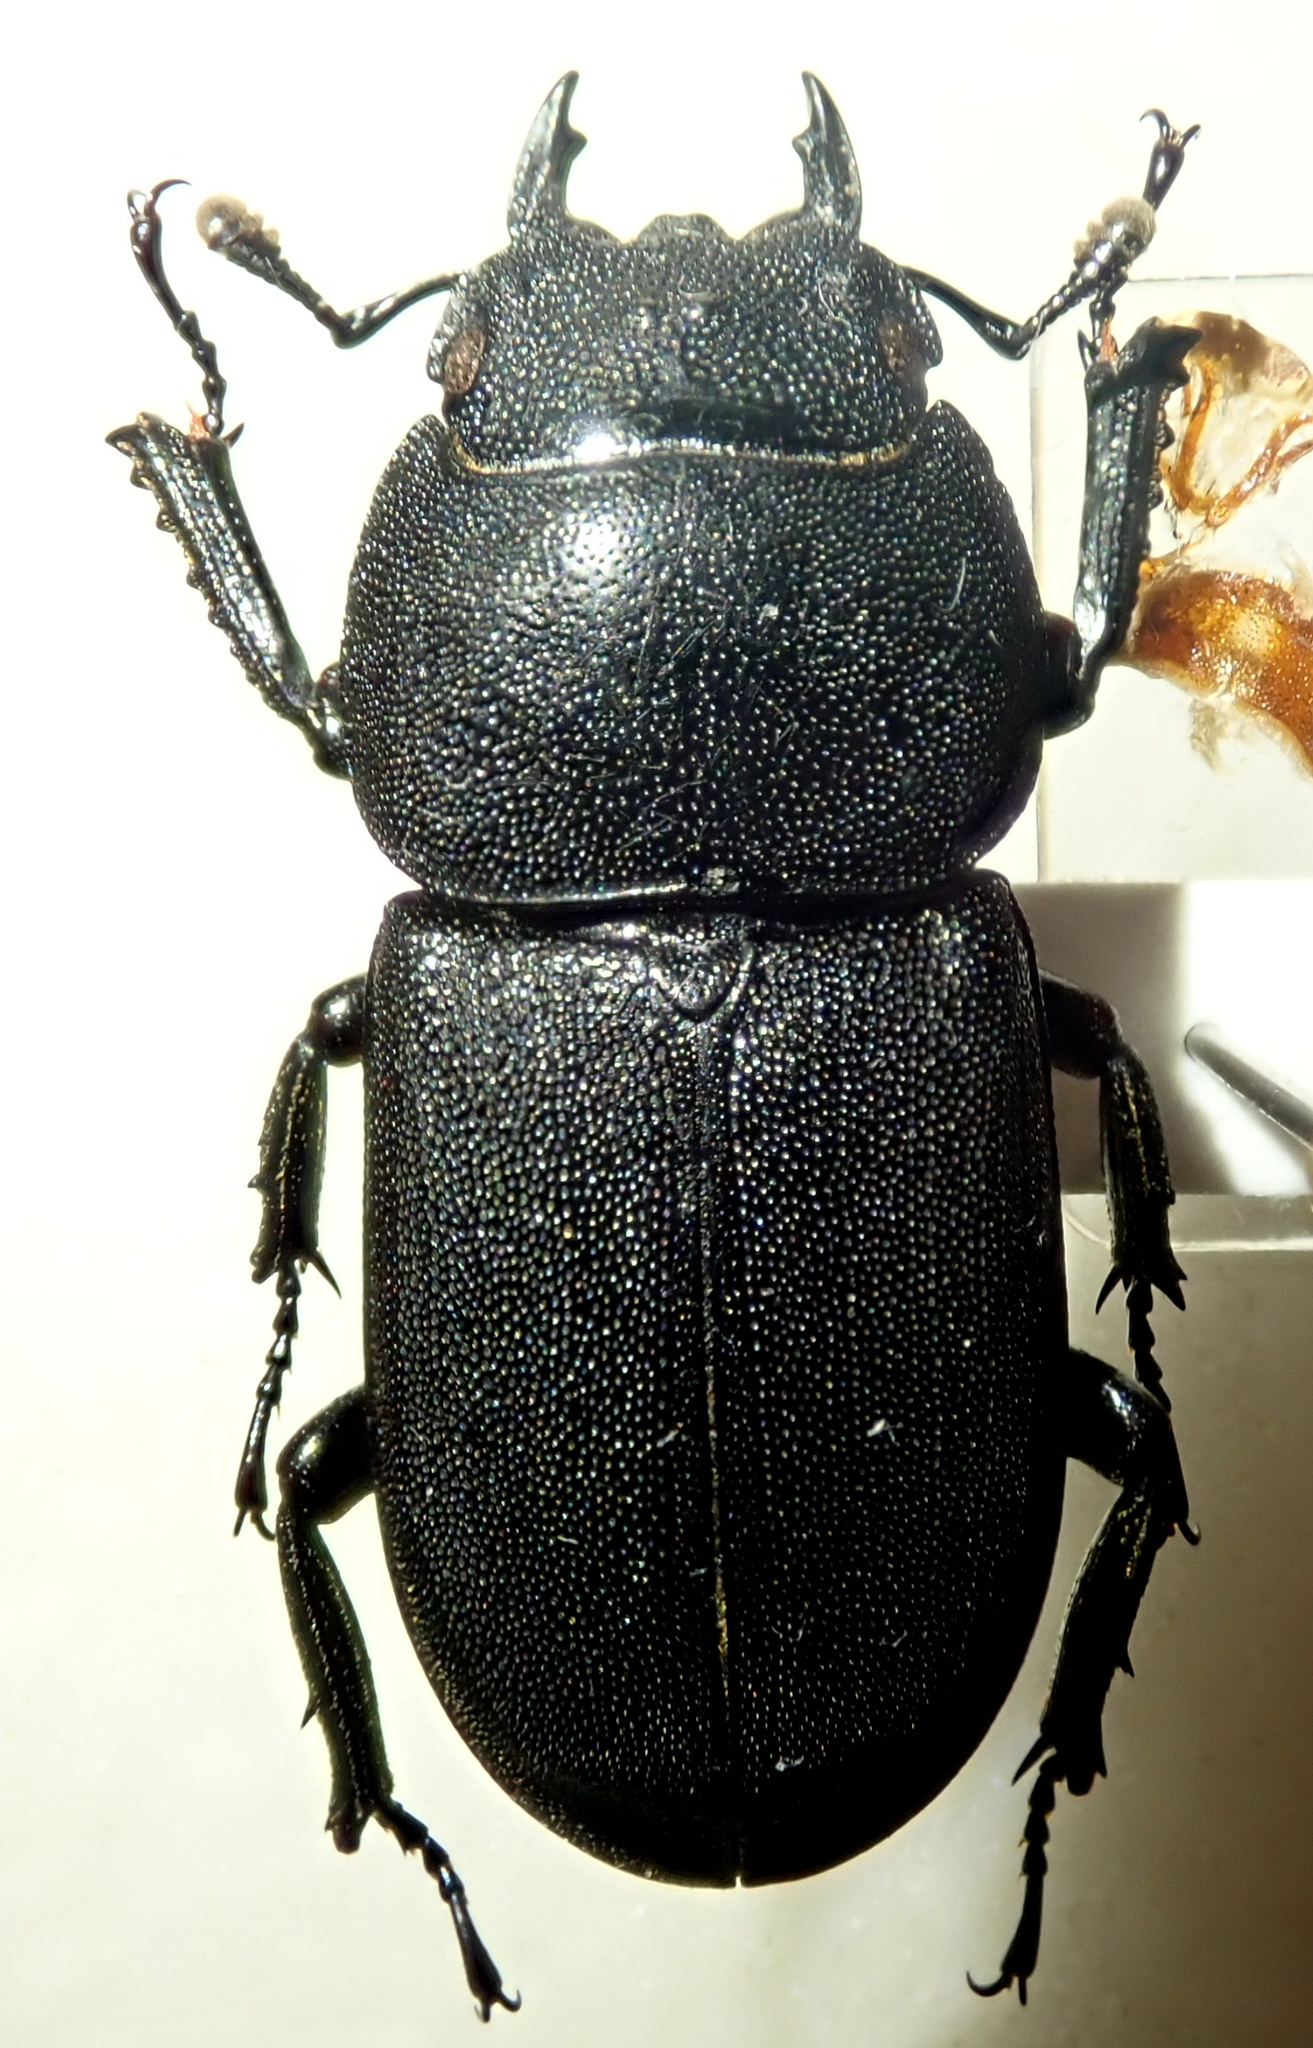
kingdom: Animalia
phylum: Arthropoda
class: Insecta
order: Coleoptera
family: Lucanidae
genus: Dorcus
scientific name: Dorcus parallelipipedus
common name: Lesser stag beetle
